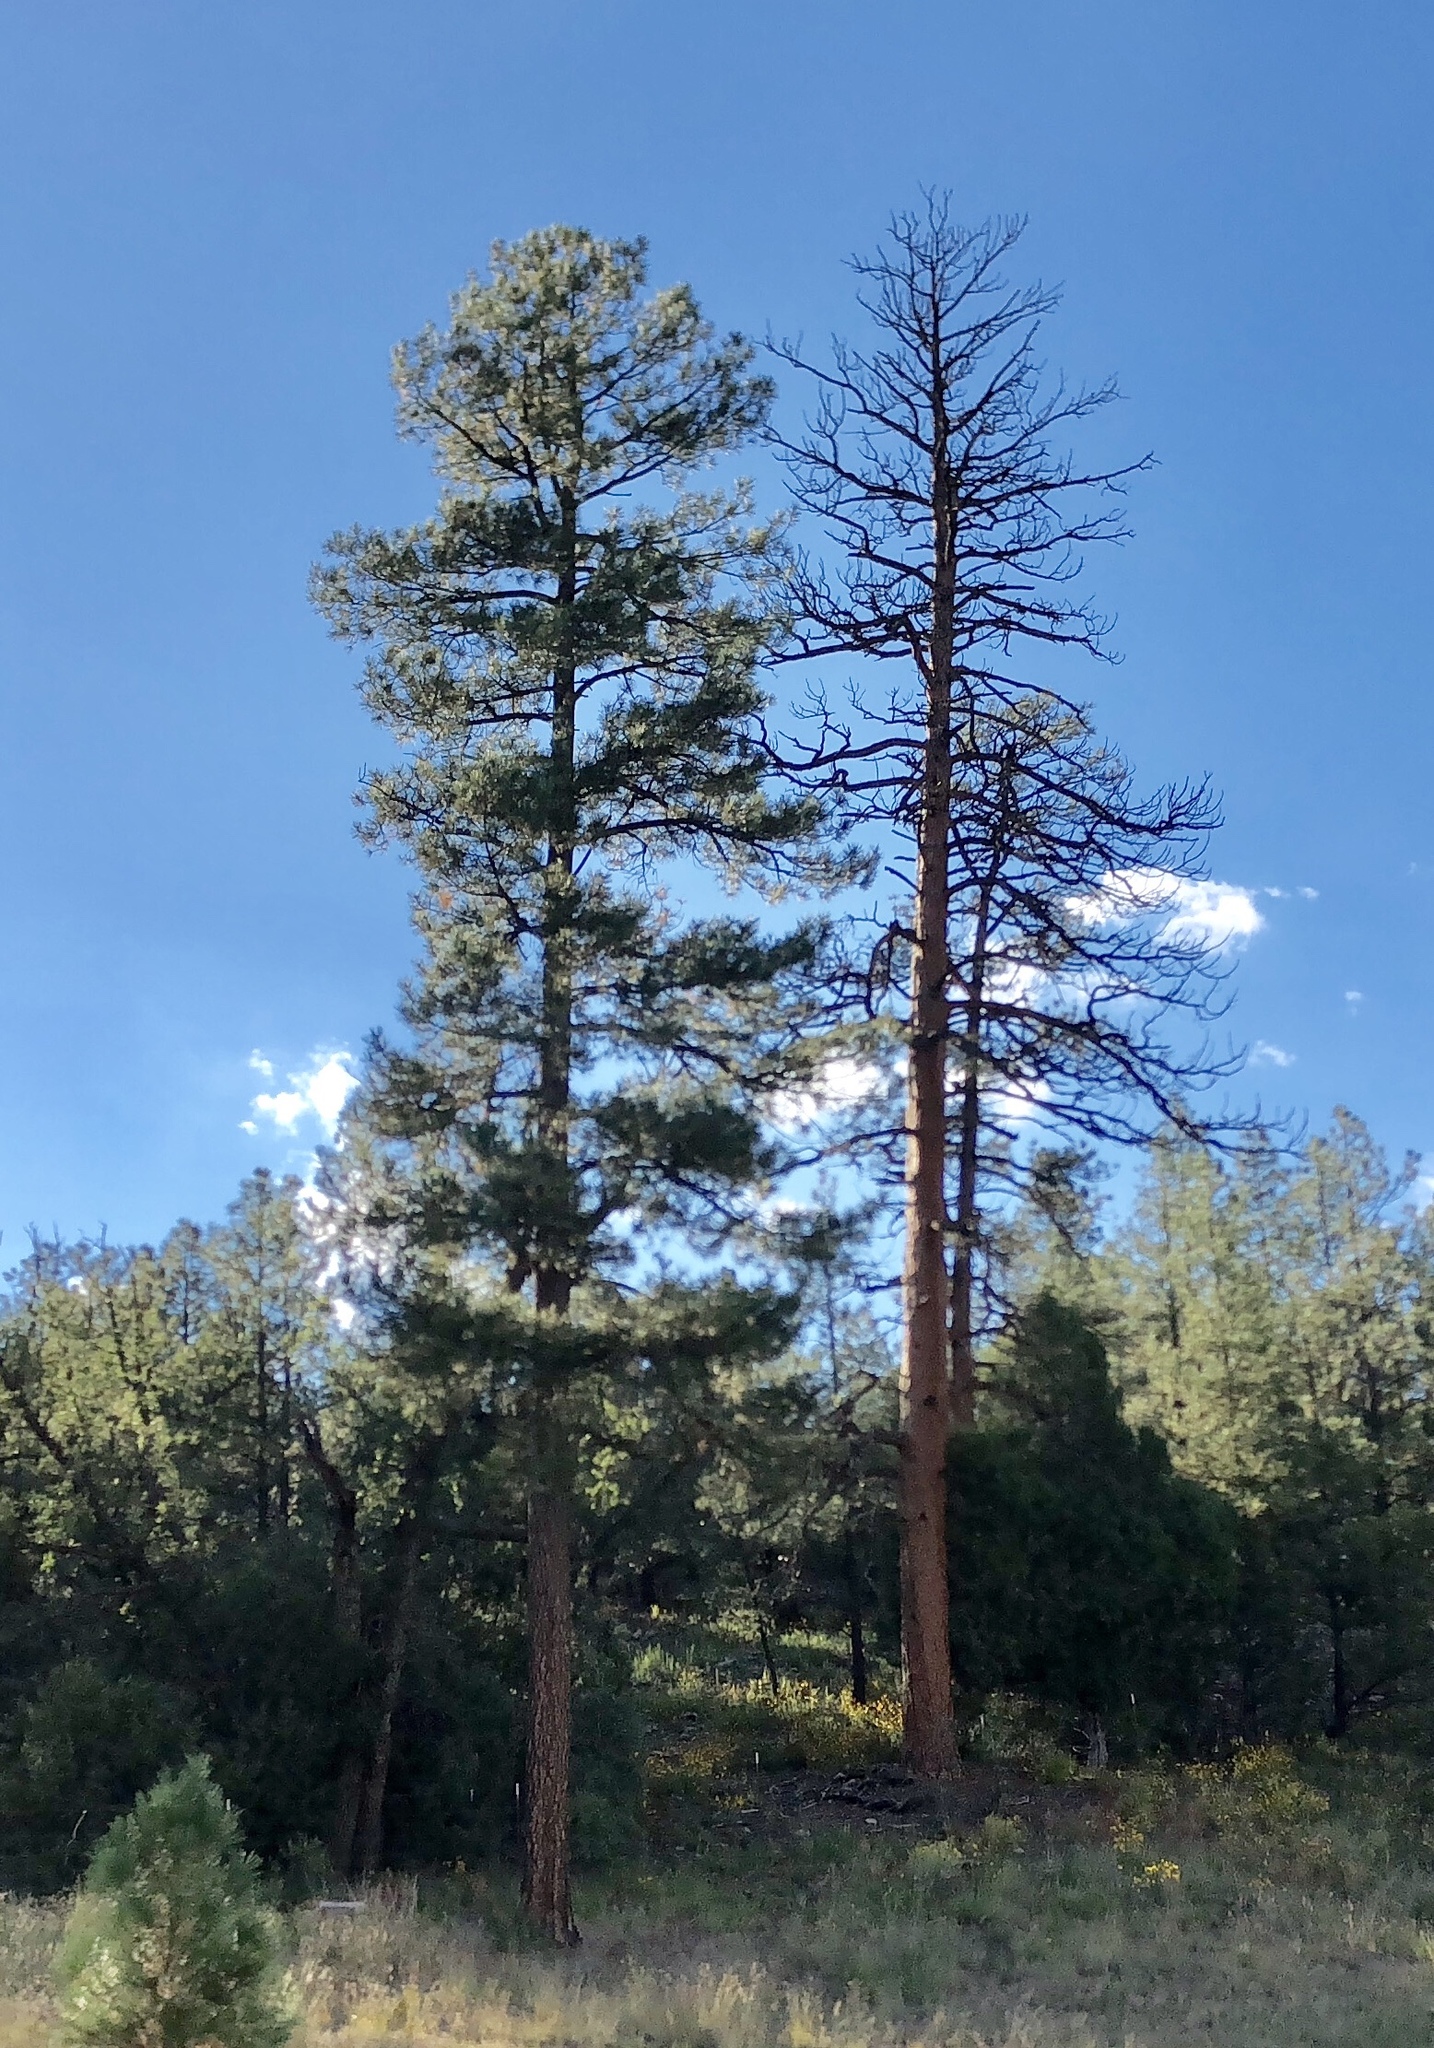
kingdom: Plantae
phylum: Tracheophyta
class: Pinopsida
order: Pinales
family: Pinaceae
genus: Pinus
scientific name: Pinus ponderosa
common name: Western yellow-pine
